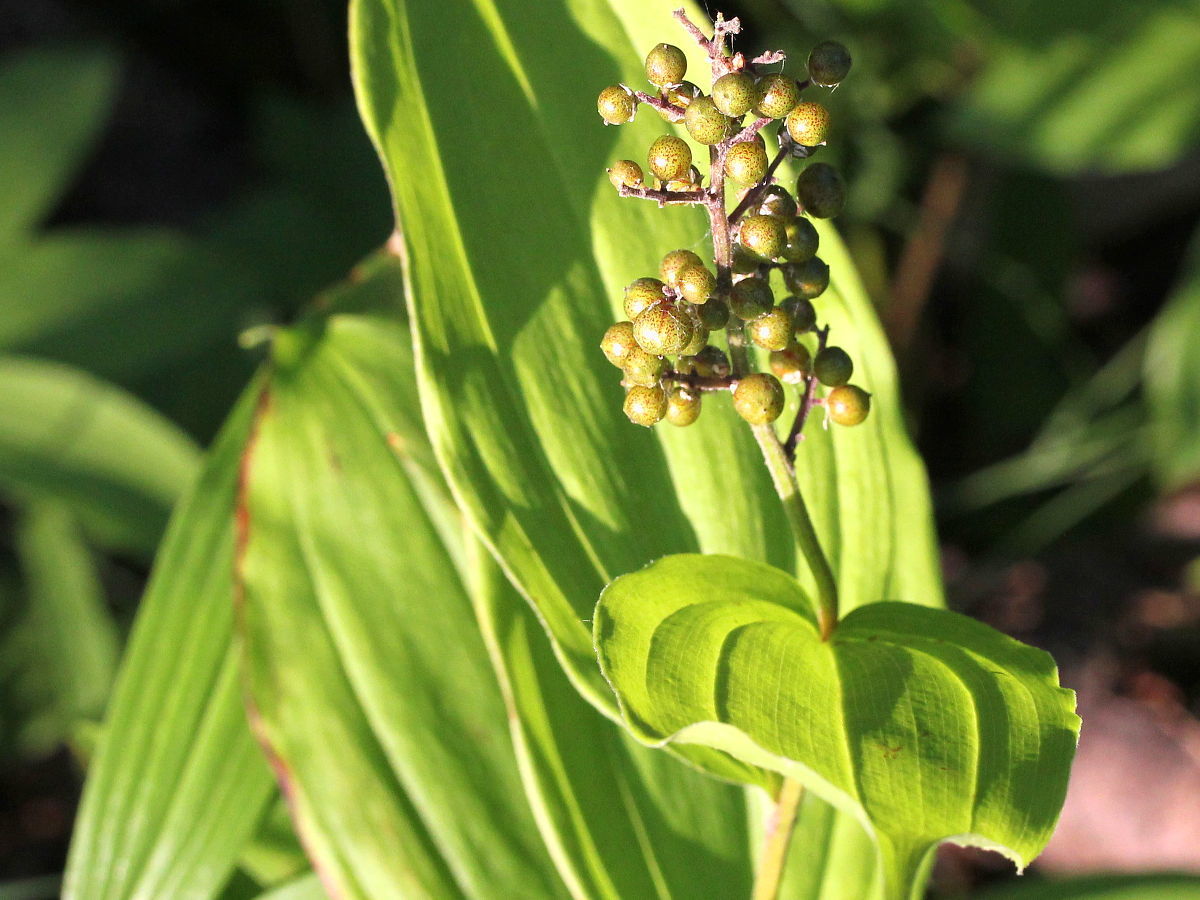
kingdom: Plantae
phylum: Tracheophyta
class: Liliopsida
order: Asparagales
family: Asparagaceae
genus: Maianthemum
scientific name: Maianthemum racemosum
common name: False spikenard
